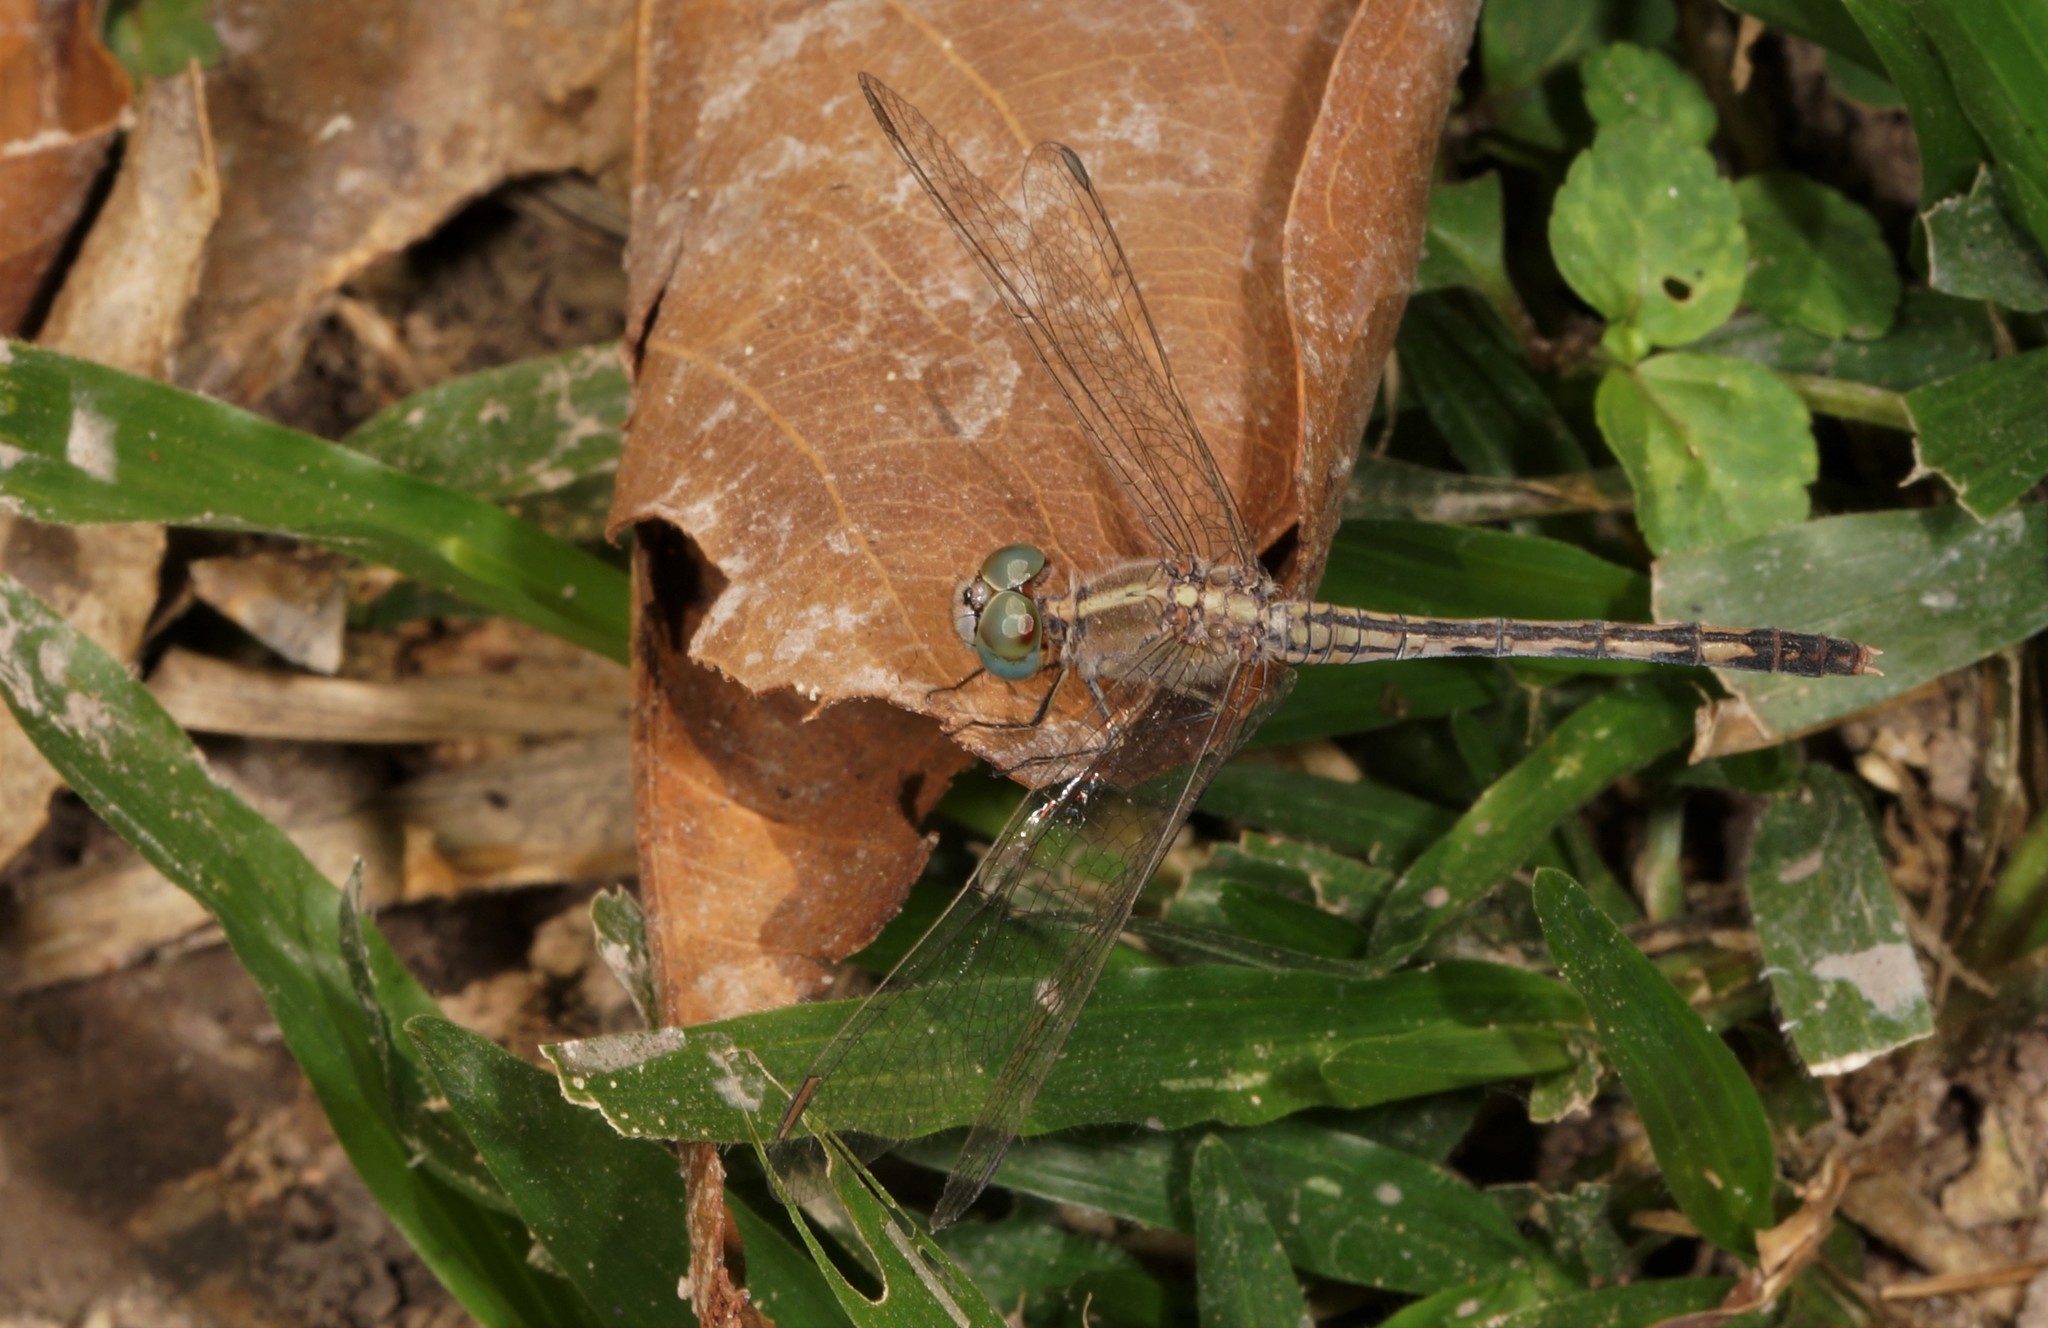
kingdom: Animalia
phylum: Arthropoda
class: Insecta
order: Odonata
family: Libellulidae
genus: Diplacodes
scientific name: Diplacodes trivialis
